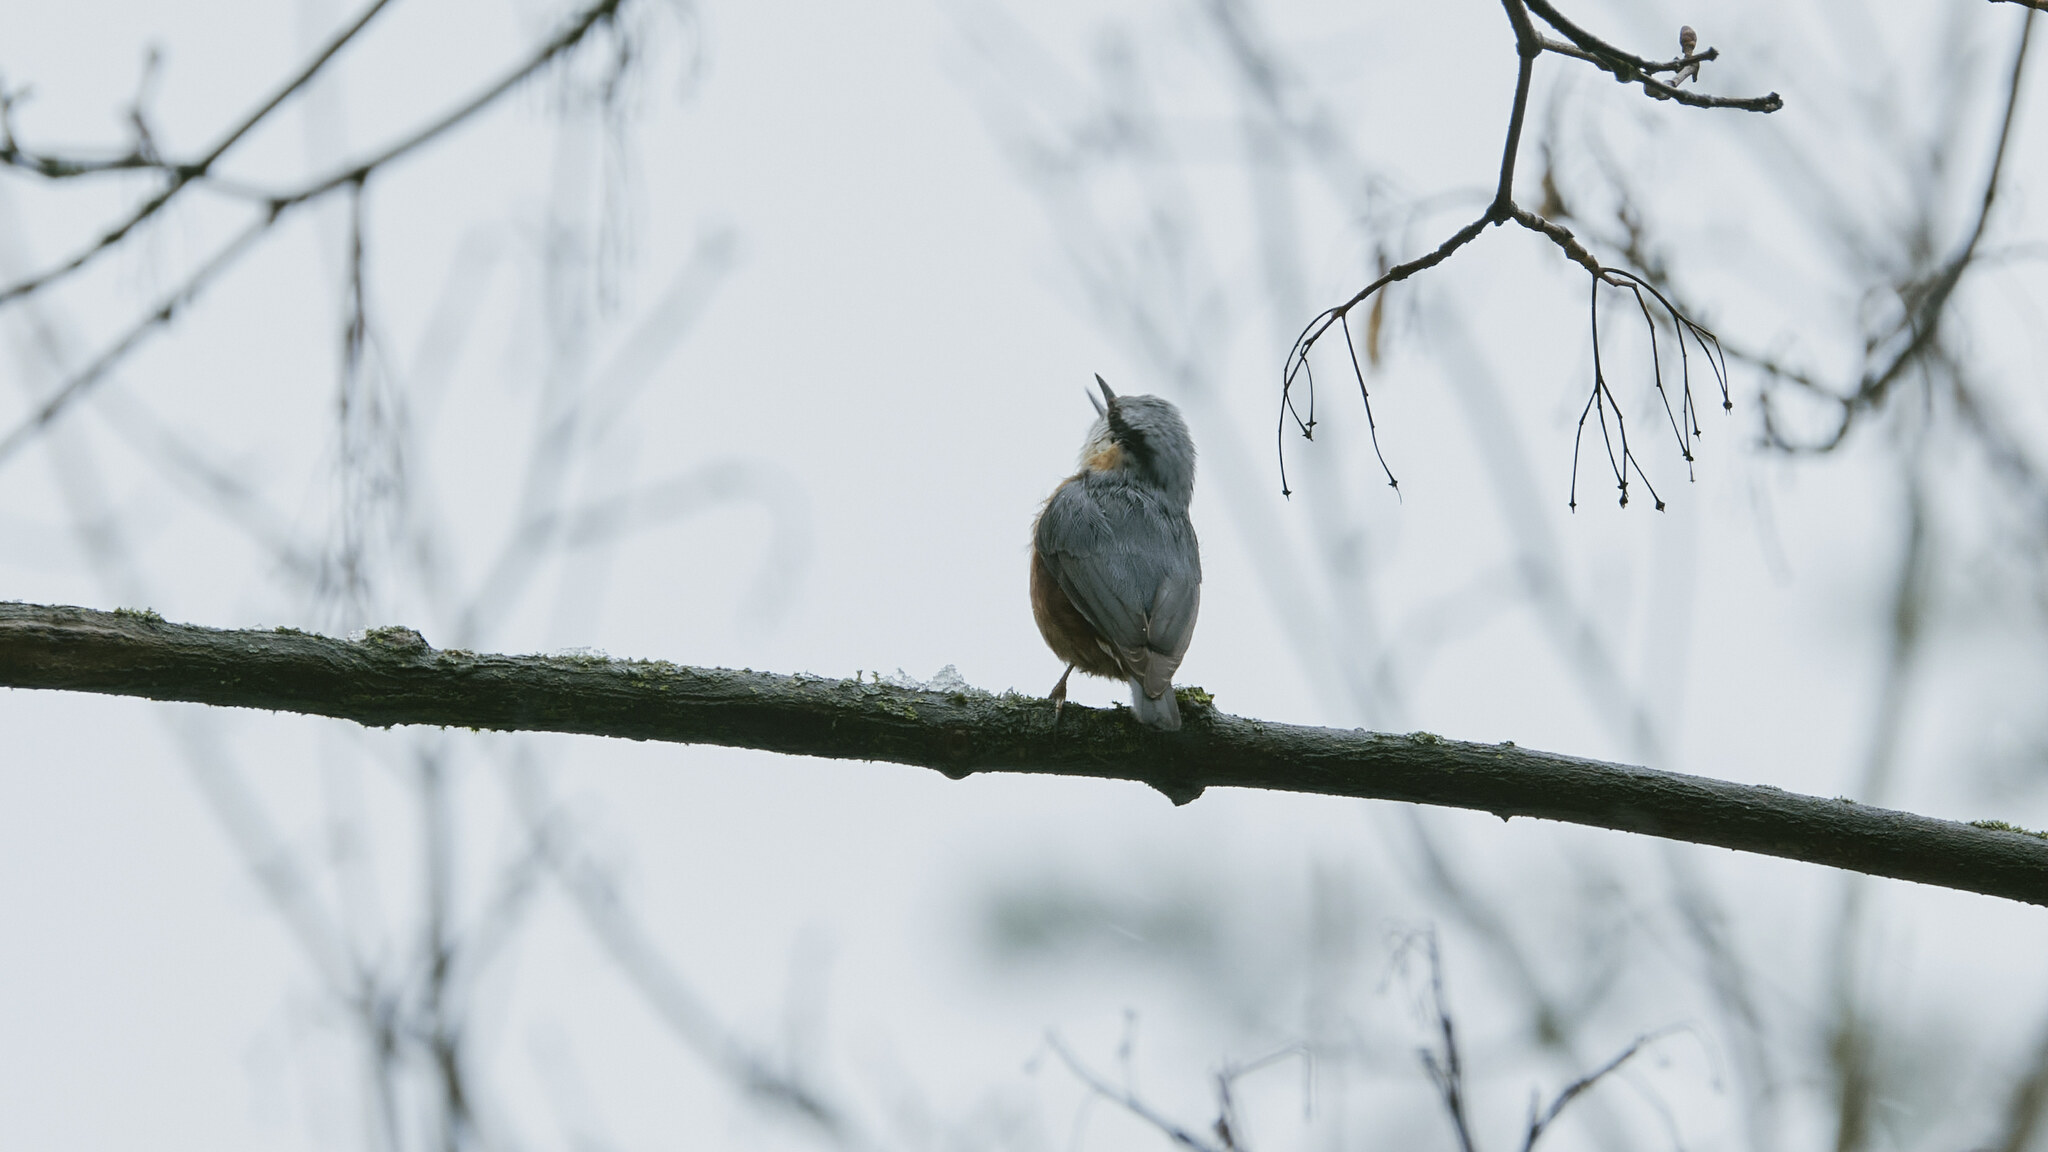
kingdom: Animalia
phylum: Chordata
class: Aves
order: Passeriformes
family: Sittidae
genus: Sitta
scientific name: Sitta europaea
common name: Eurasian nuthatch
